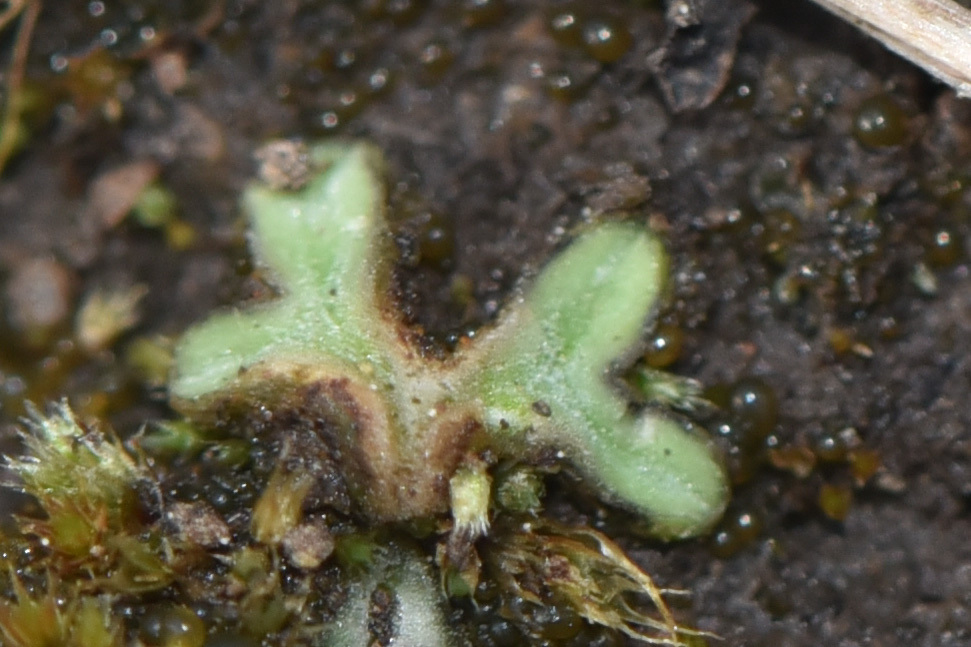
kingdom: Plantae
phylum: Marchantiophyta
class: Marchantiopsida
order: Marchantiales
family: Ricciaceae
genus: Riccia
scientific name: Riccia sorocarpa
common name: Common crystalwort
